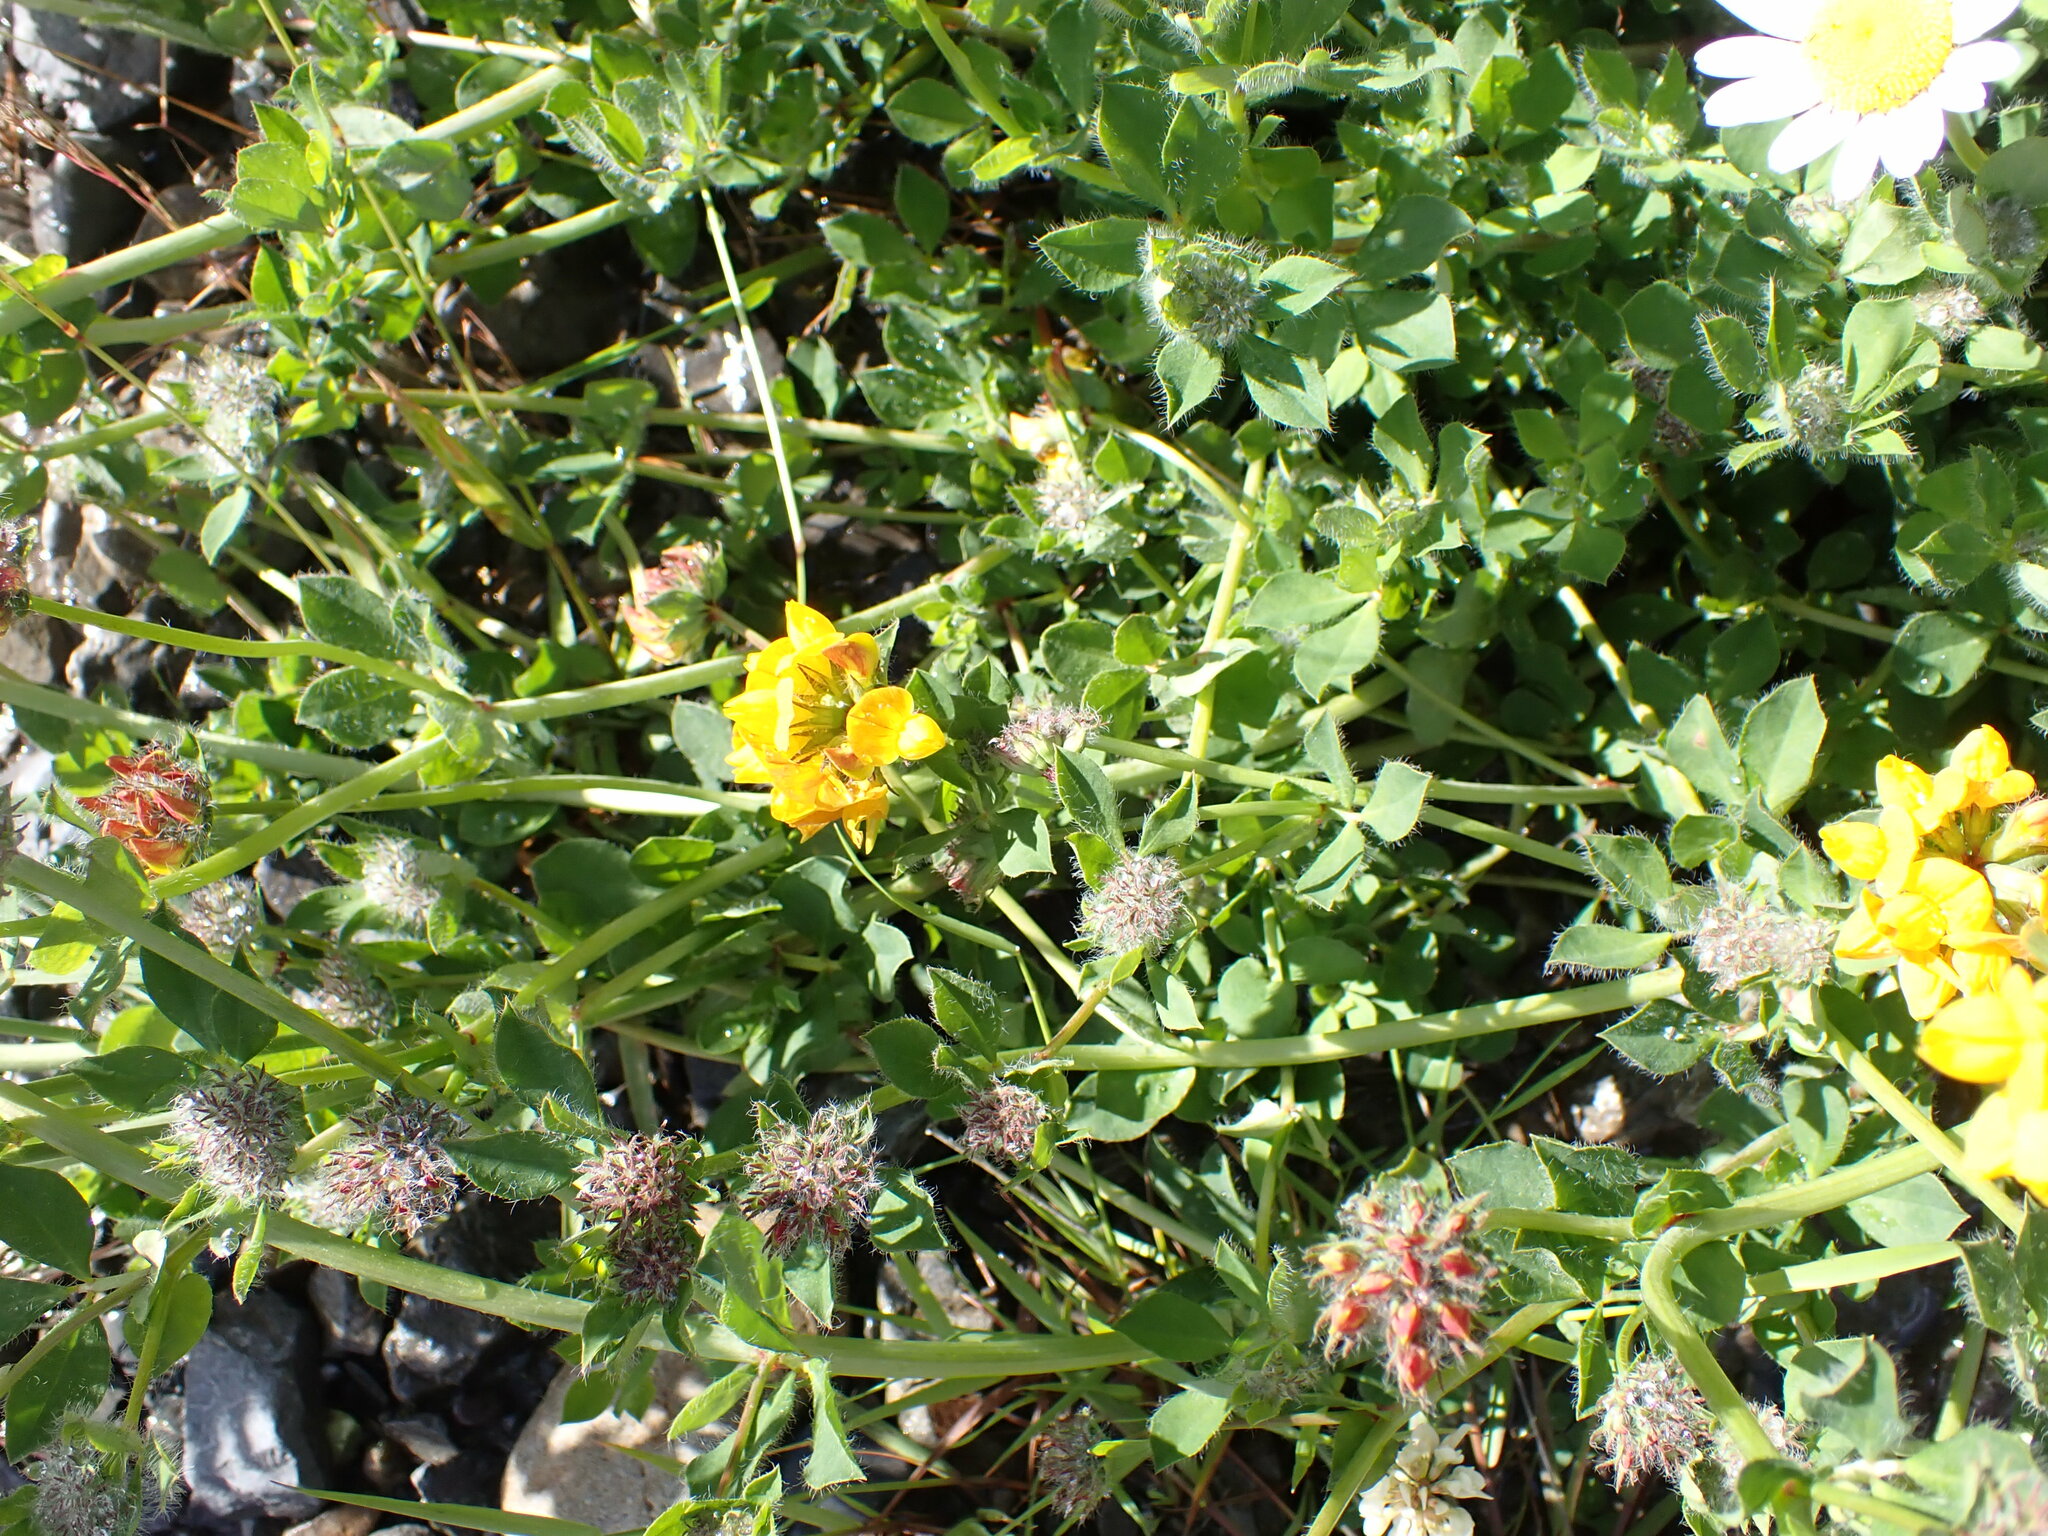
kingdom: Plantae
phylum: Tracheophyta
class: Magnoliopsida
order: Fabales
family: Fabaceae
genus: Lotus
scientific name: Lotus pedunculatus
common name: Greater birdsfoot-trefoil
